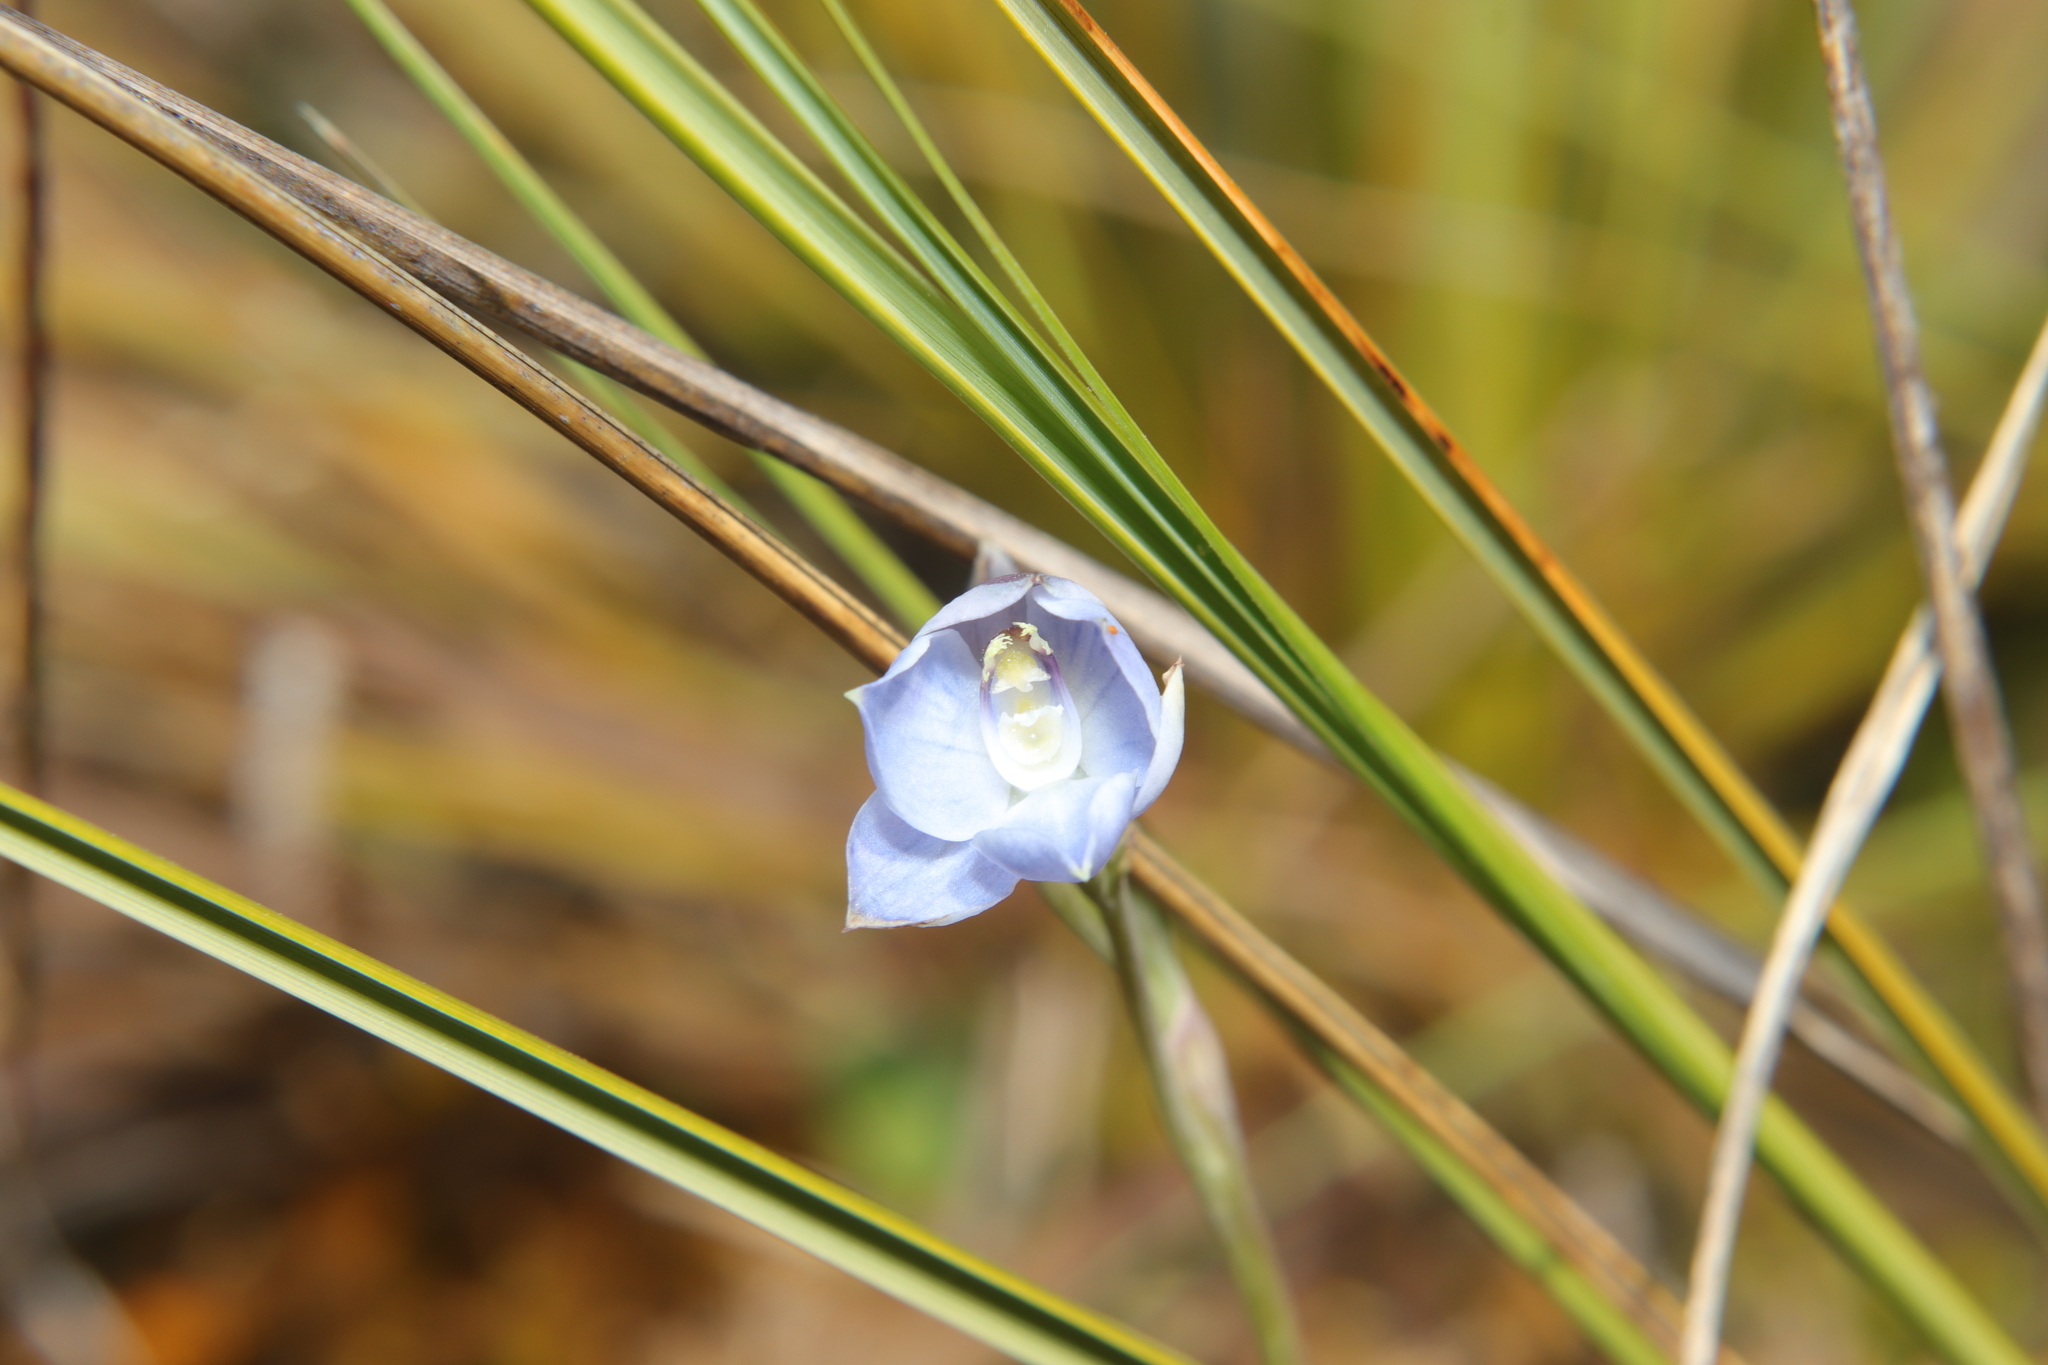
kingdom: Plantae
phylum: Tracheophyta
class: Liliopsida
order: Asparagales
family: Orchidaceae
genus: Thelymitra
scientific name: Thelymitra pulchella
